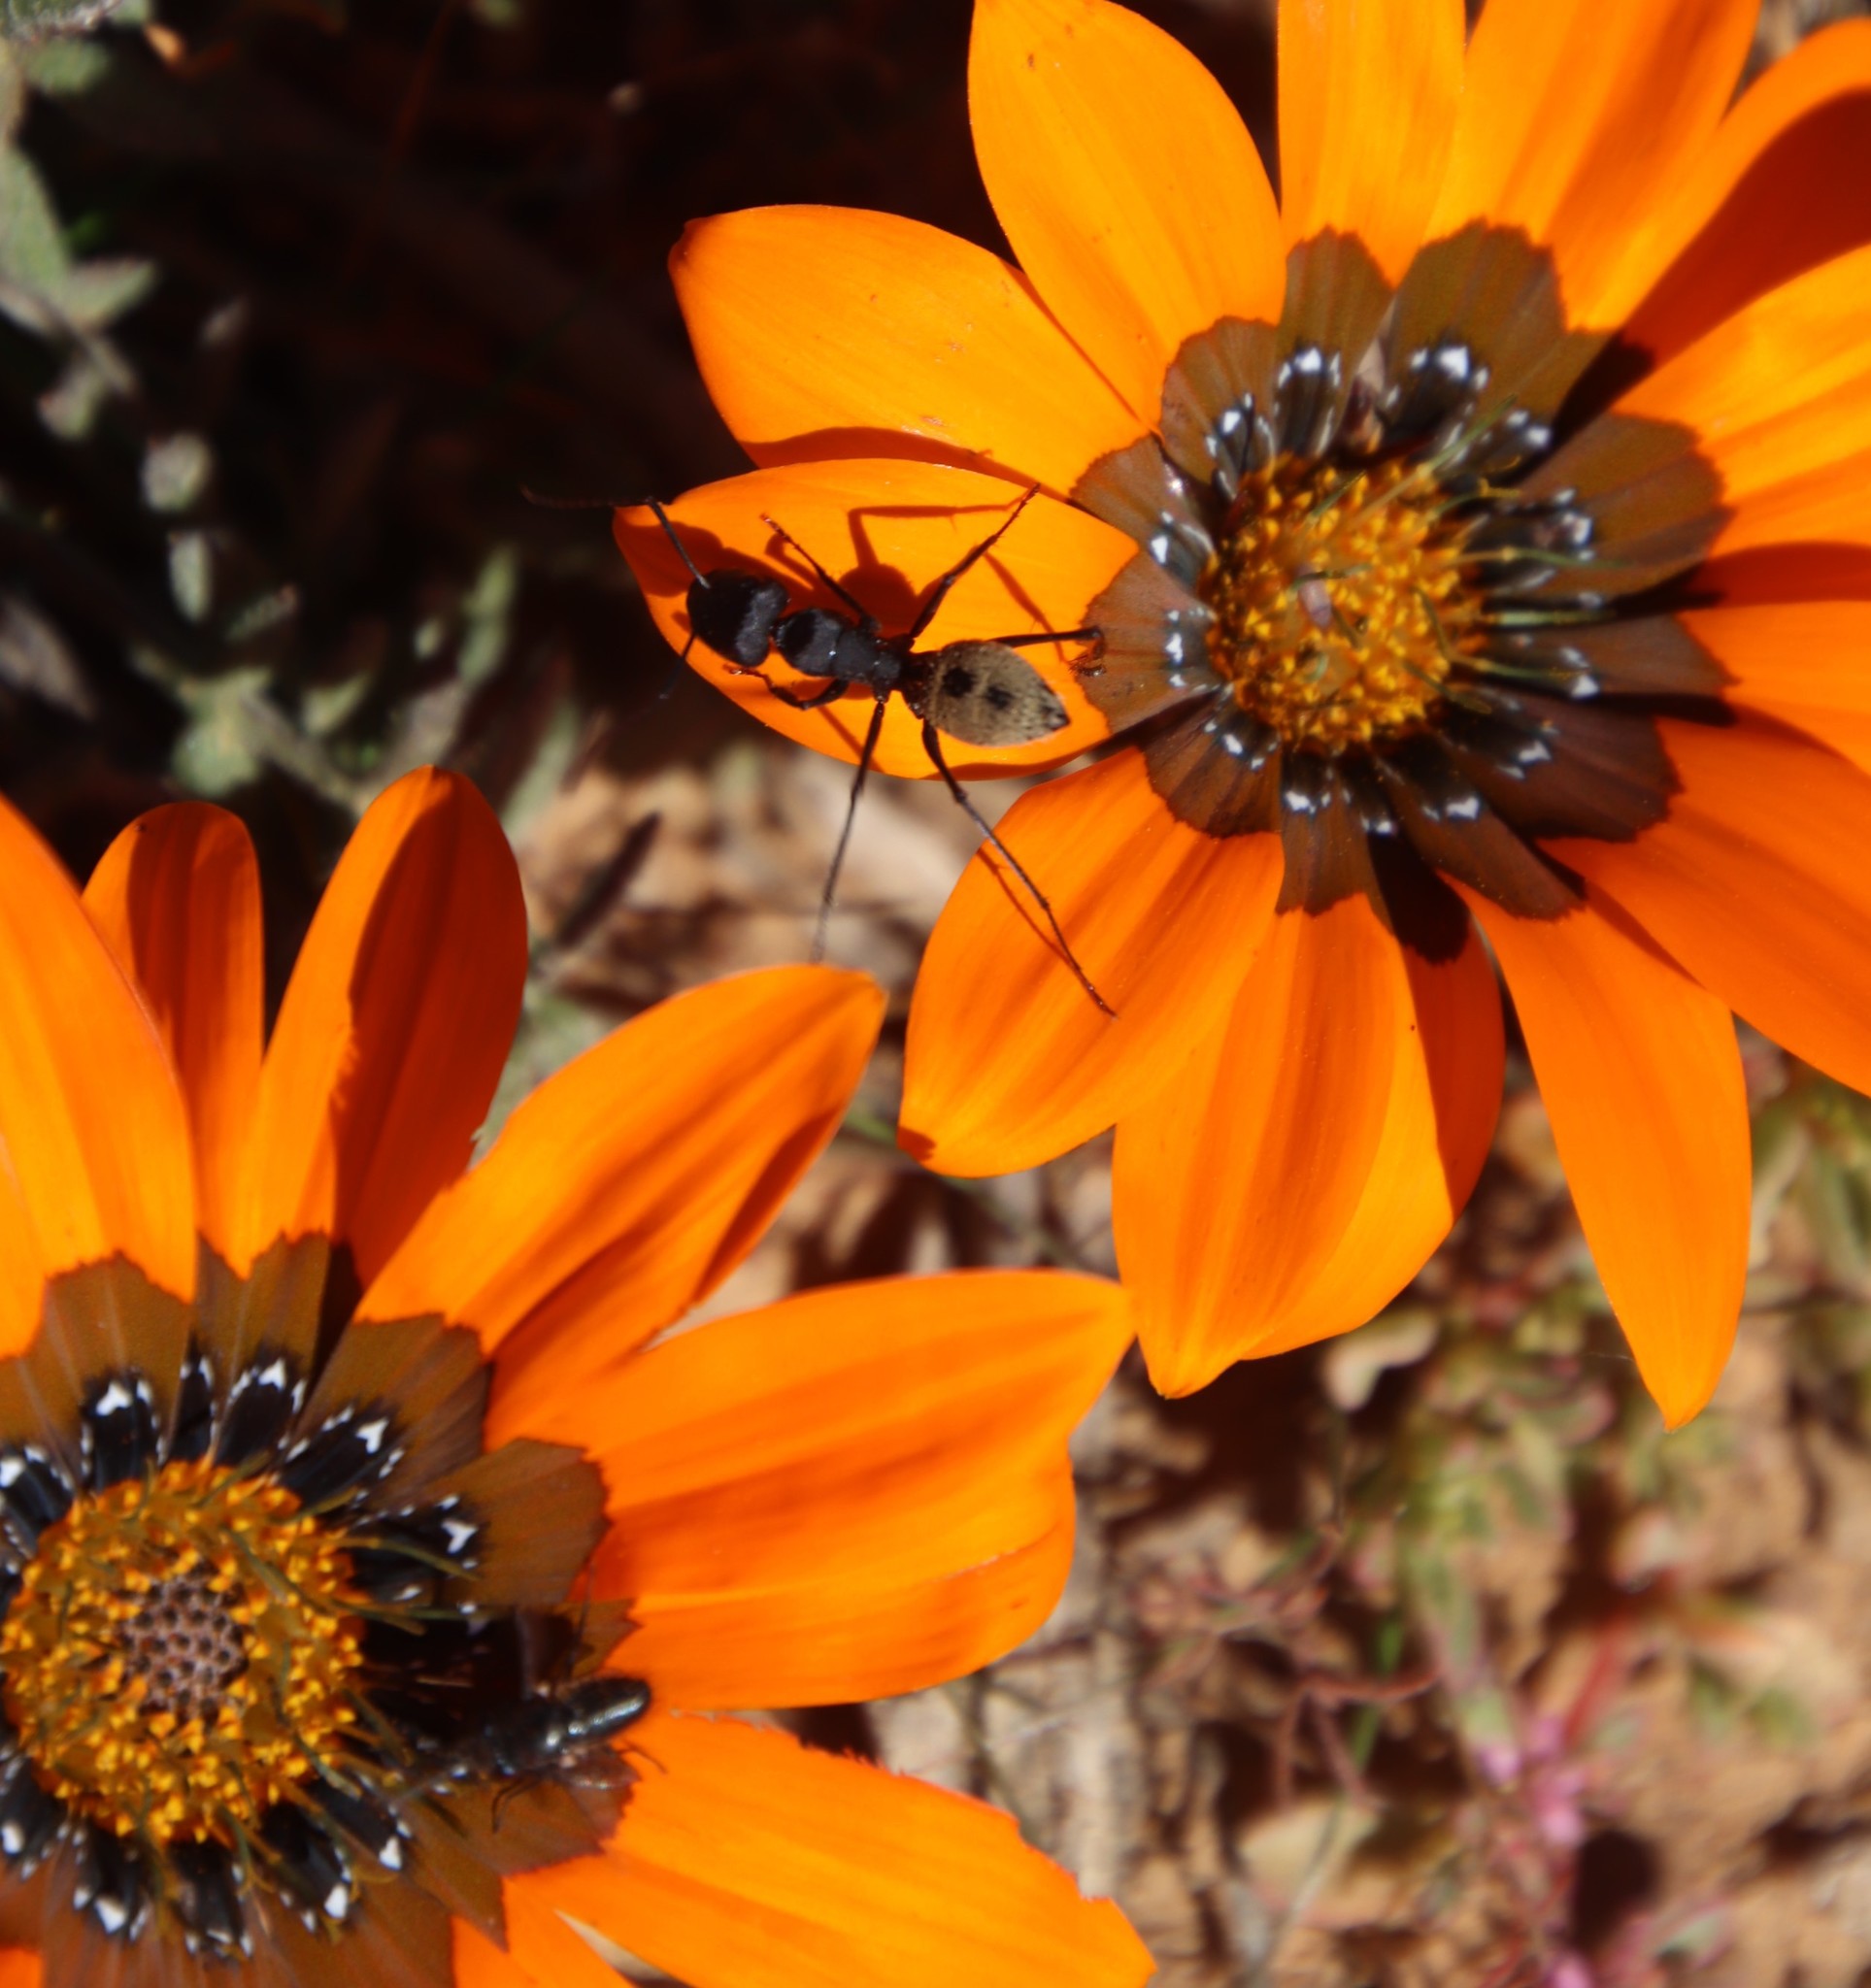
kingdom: Animalia
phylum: Arthropoda
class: Insecta
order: Diptera
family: Bombyliidae
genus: Megapalpus
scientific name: Megapalpus capensis
